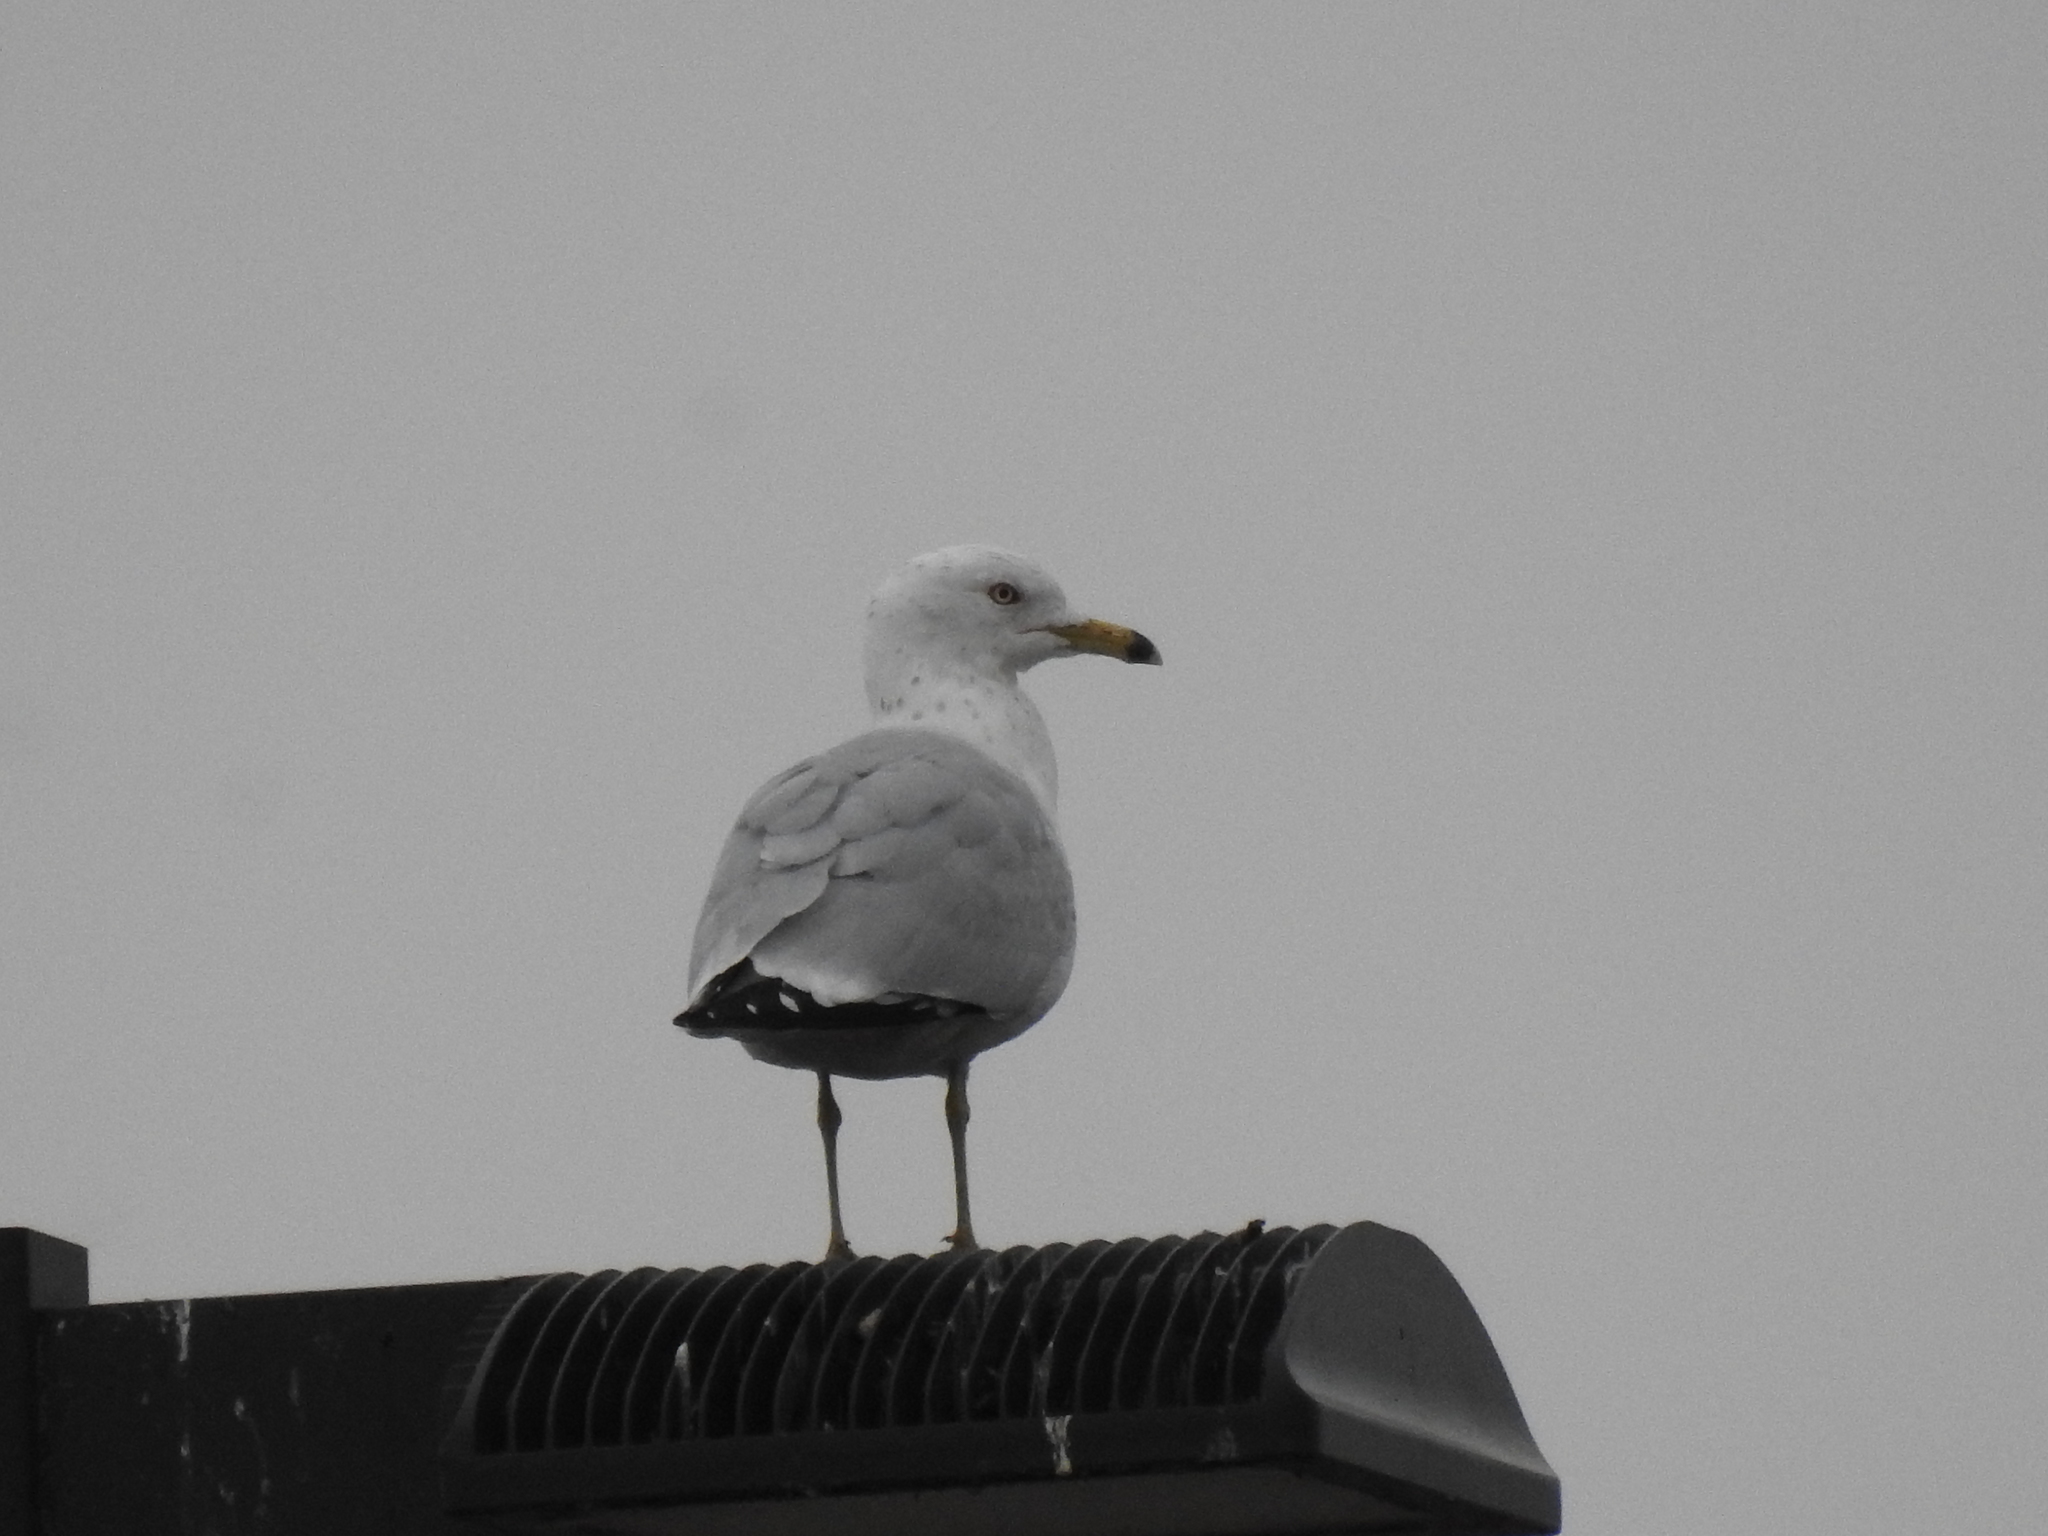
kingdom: Animalia
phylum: Chordata
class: Aves
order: Charadriiformes
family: Laridae
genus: Larus
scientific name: Larus delawarensis
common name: Ring-billed gull
